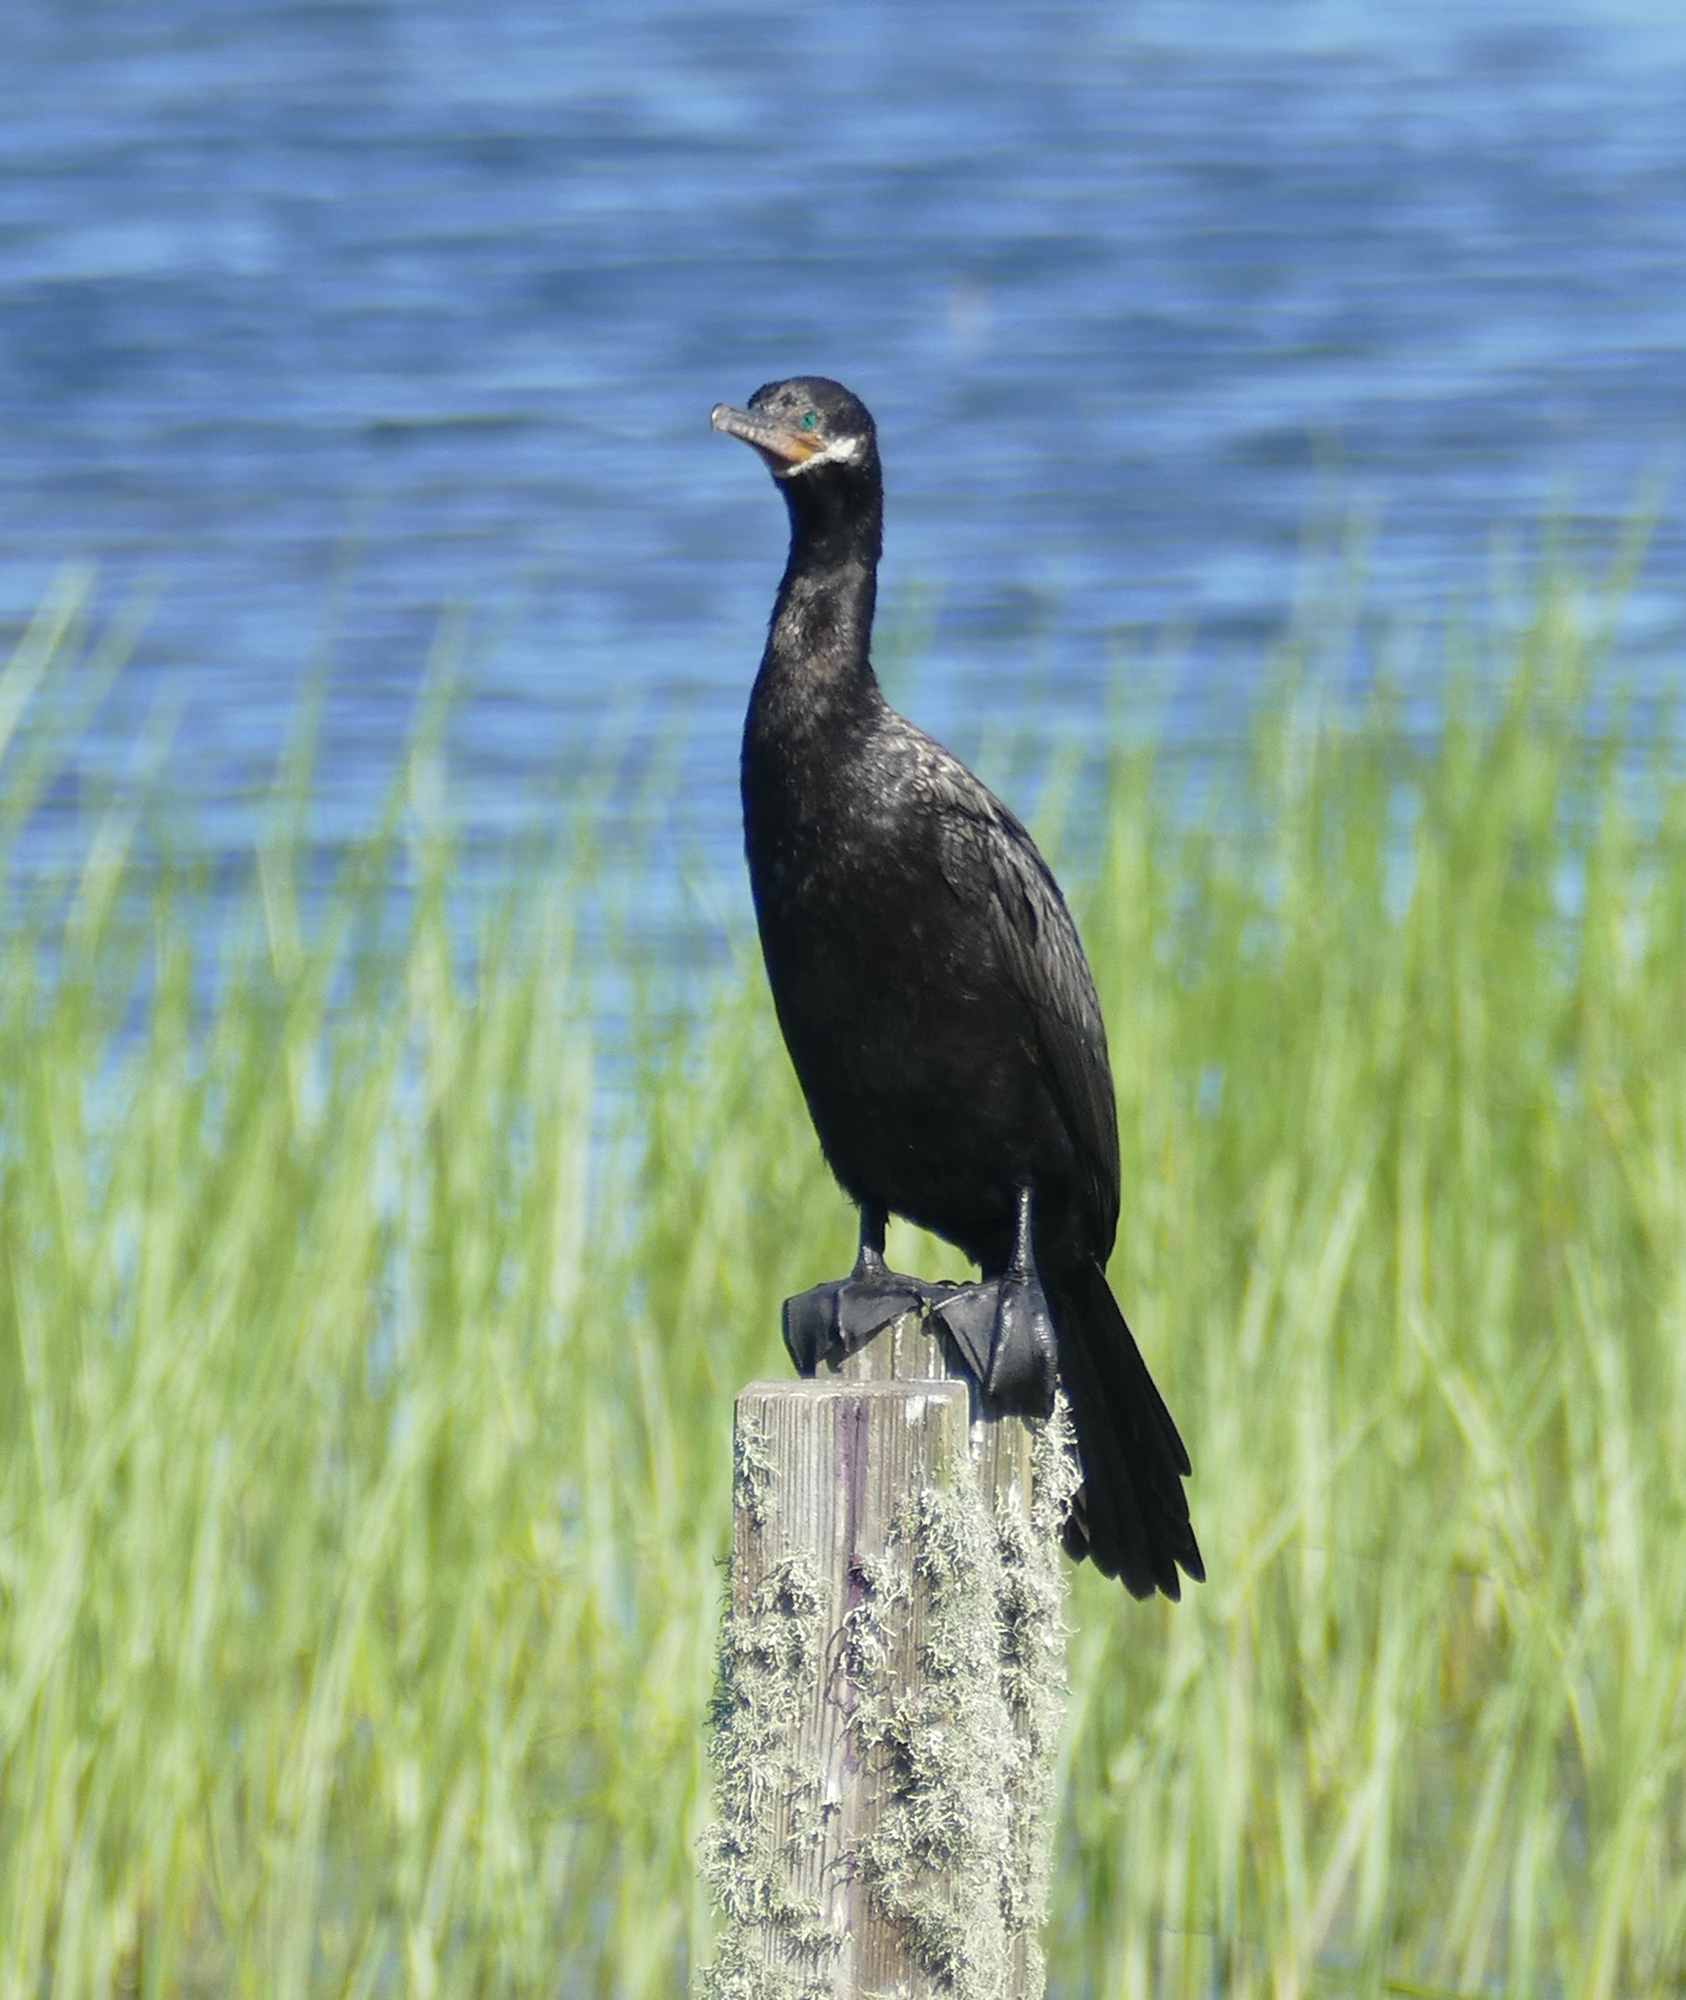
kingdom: Animalia
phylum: Chordata
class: Aves
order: Suliformes
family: Phalacrocoracidae
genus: Phalacrocorax
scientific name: Phalacrocorax brasilianus
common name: Neotropic cormorant
